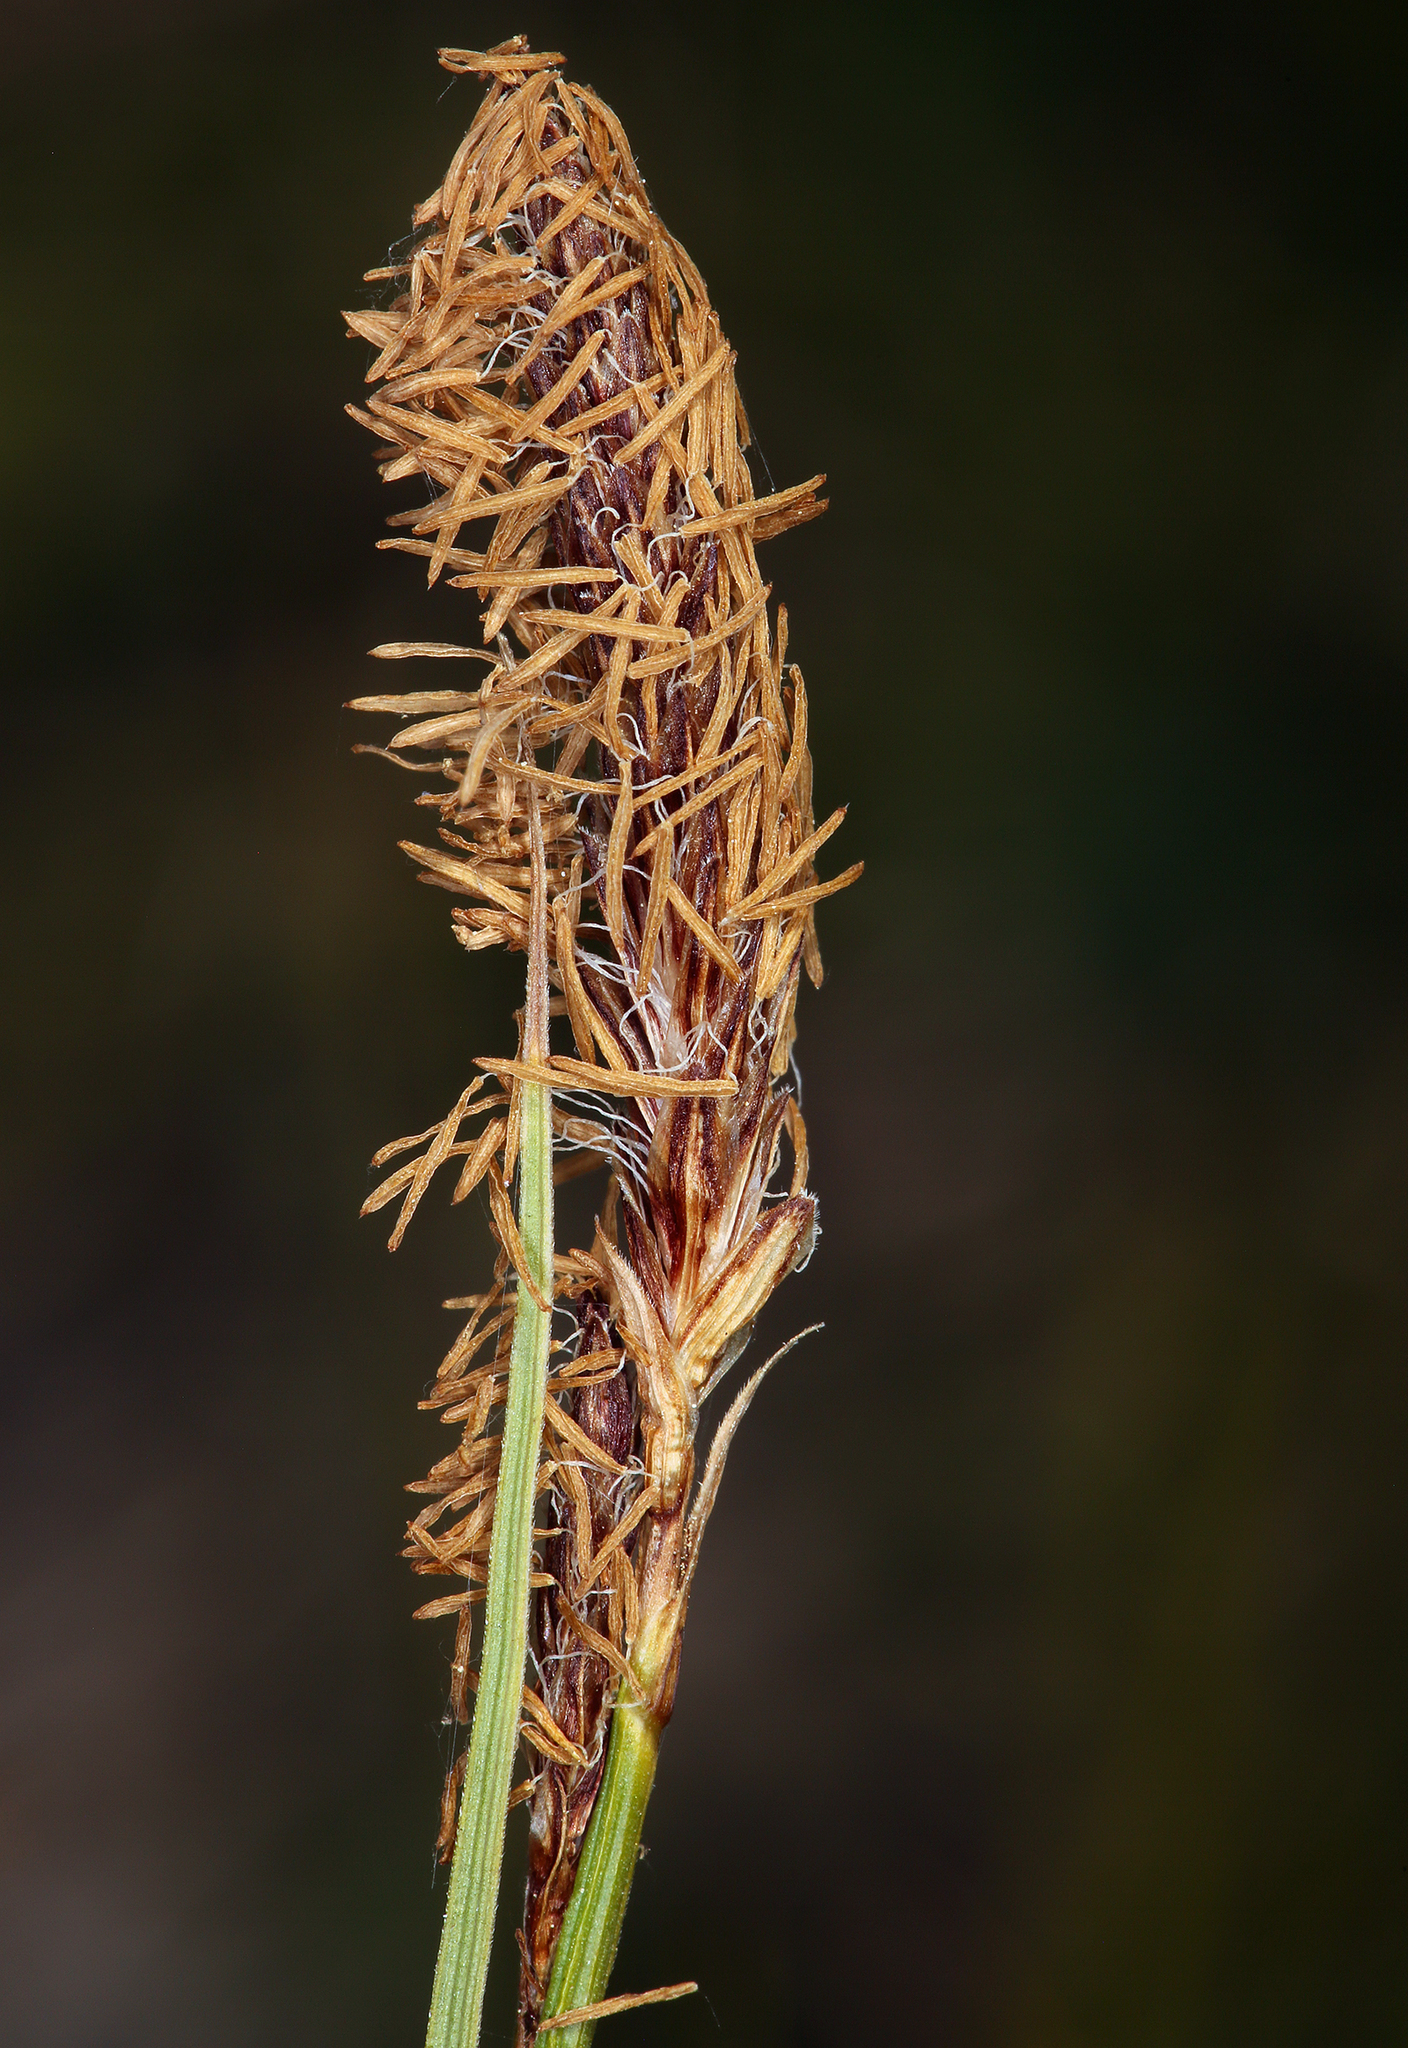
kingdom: Plantae
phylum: Tracheophyta
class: Liliopsida
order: Poales
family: Cyperaceae
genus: Carex
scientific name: Carex scabriuscula
